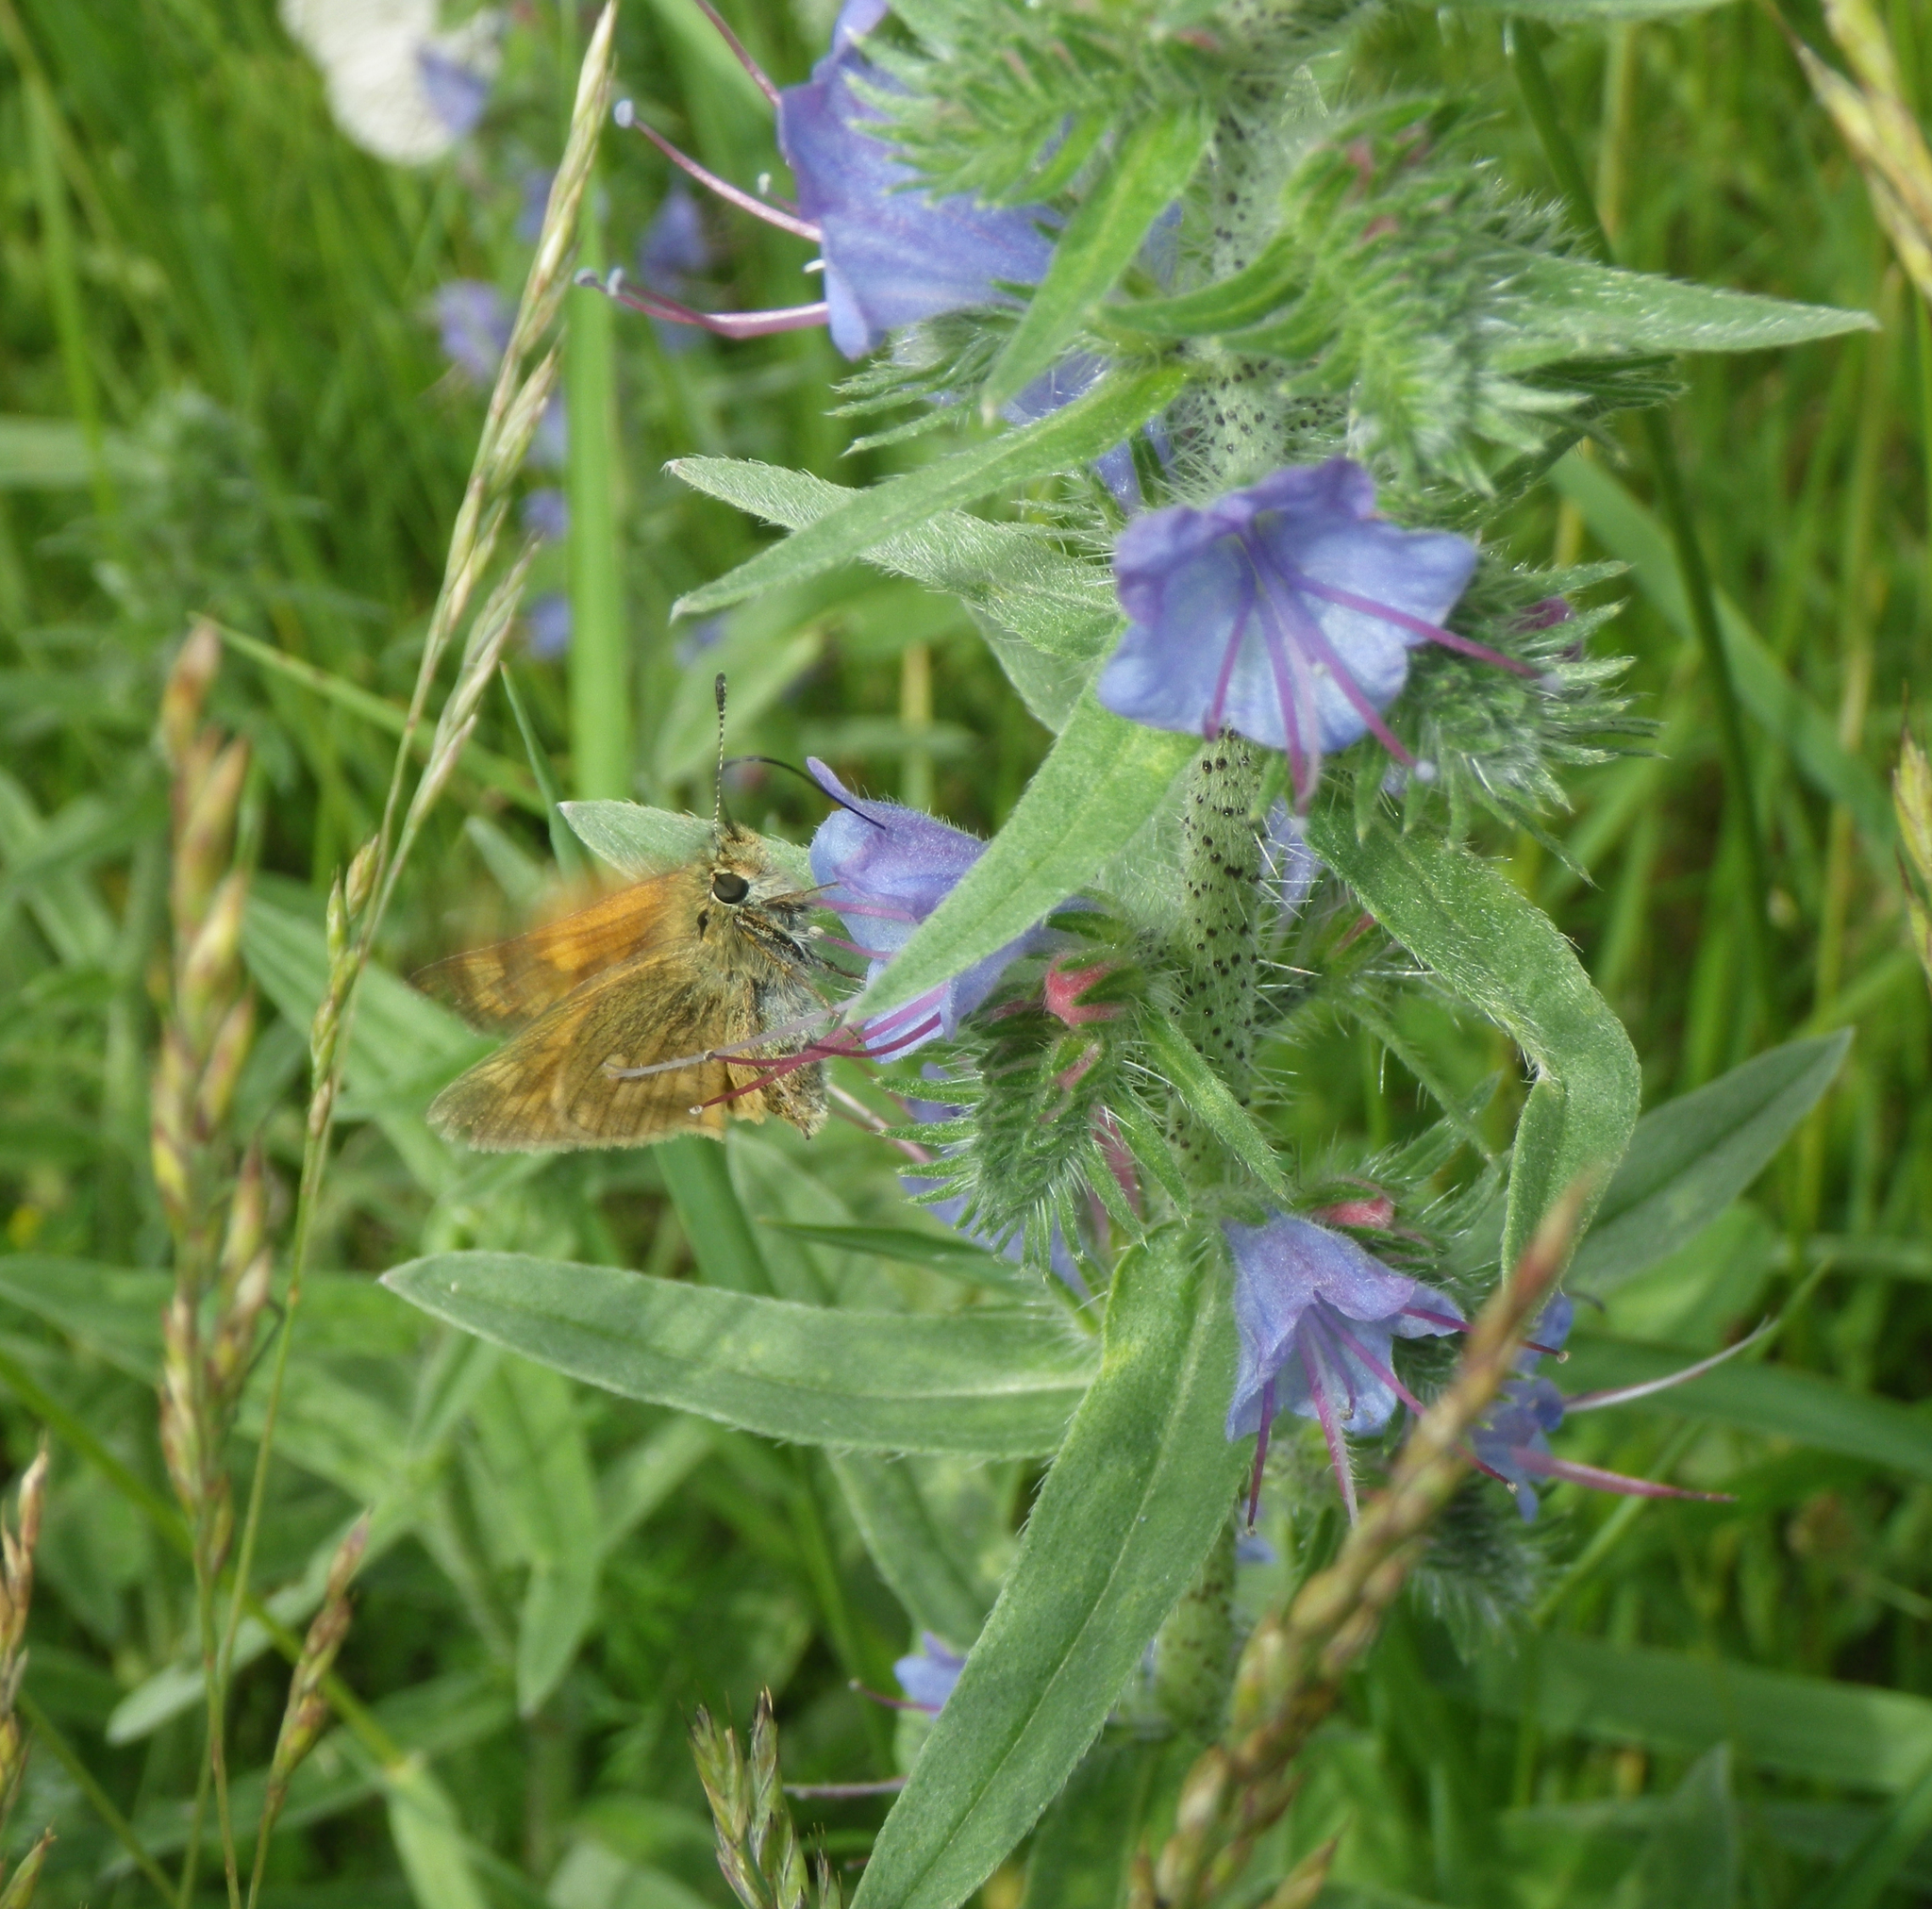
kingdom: Animalia
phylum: Arthropoda
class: Insecta
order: Lepidoptera
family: Hesperiidae
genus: Ochlodes
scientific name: Ochlodes venata
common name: Large skipper
